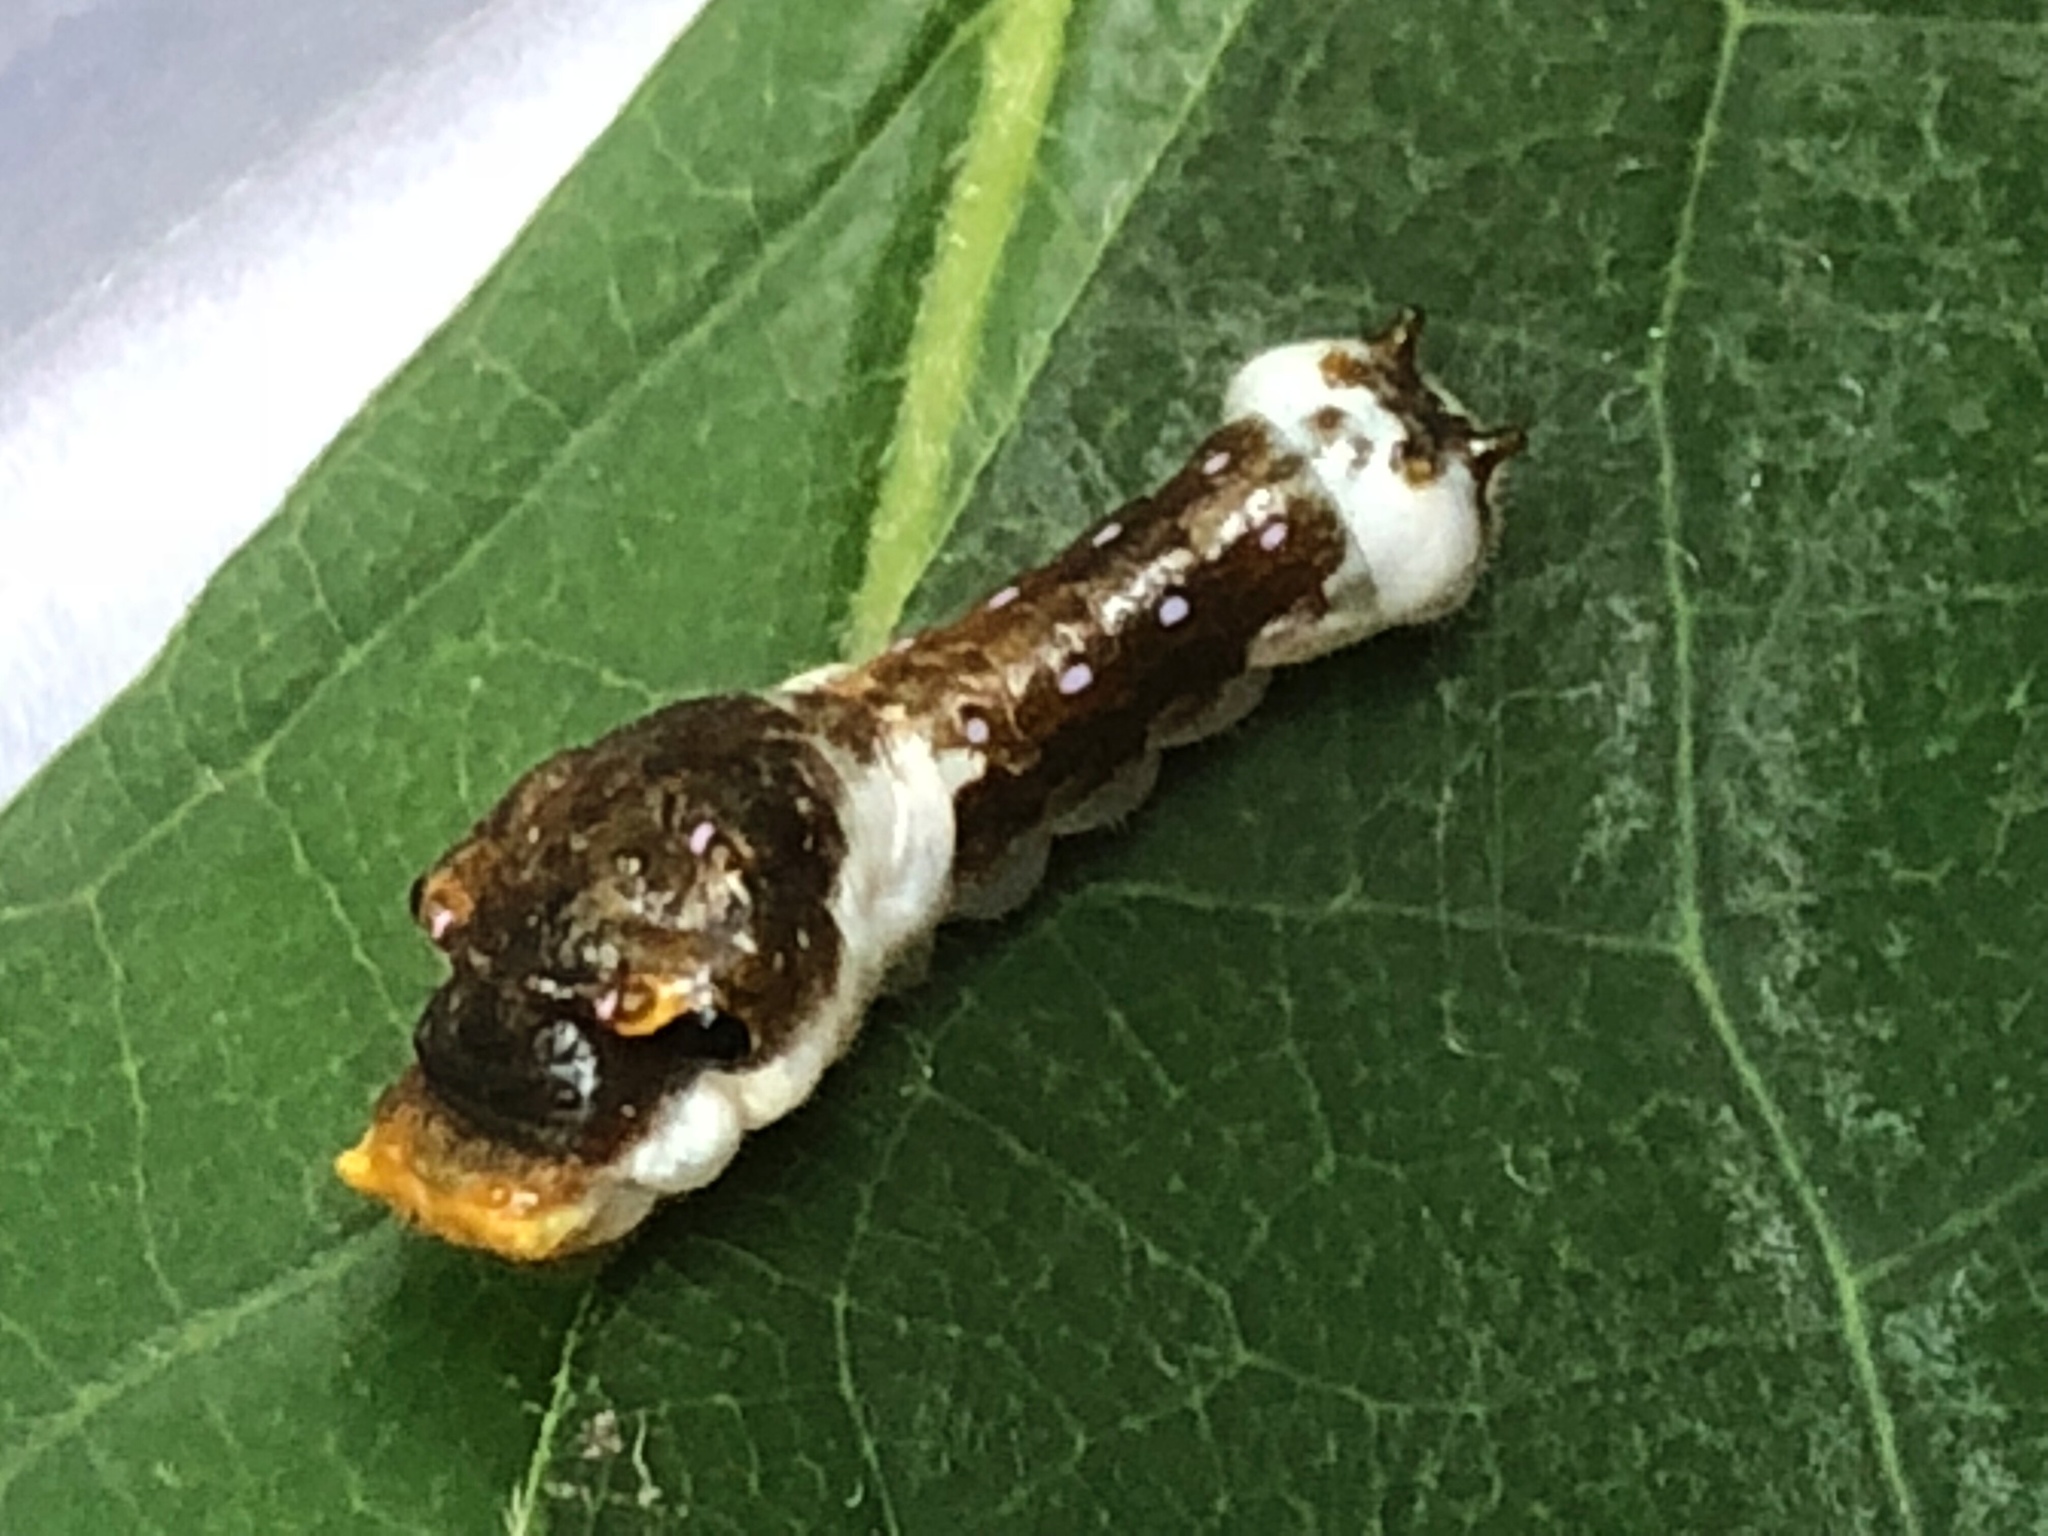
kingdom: Animalia
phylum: Arthropoda
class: Insecta
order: Lepidoptera
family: Papilionidae
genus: Papilio
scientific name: Papilio troilus
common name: Spicebush swallowtail
